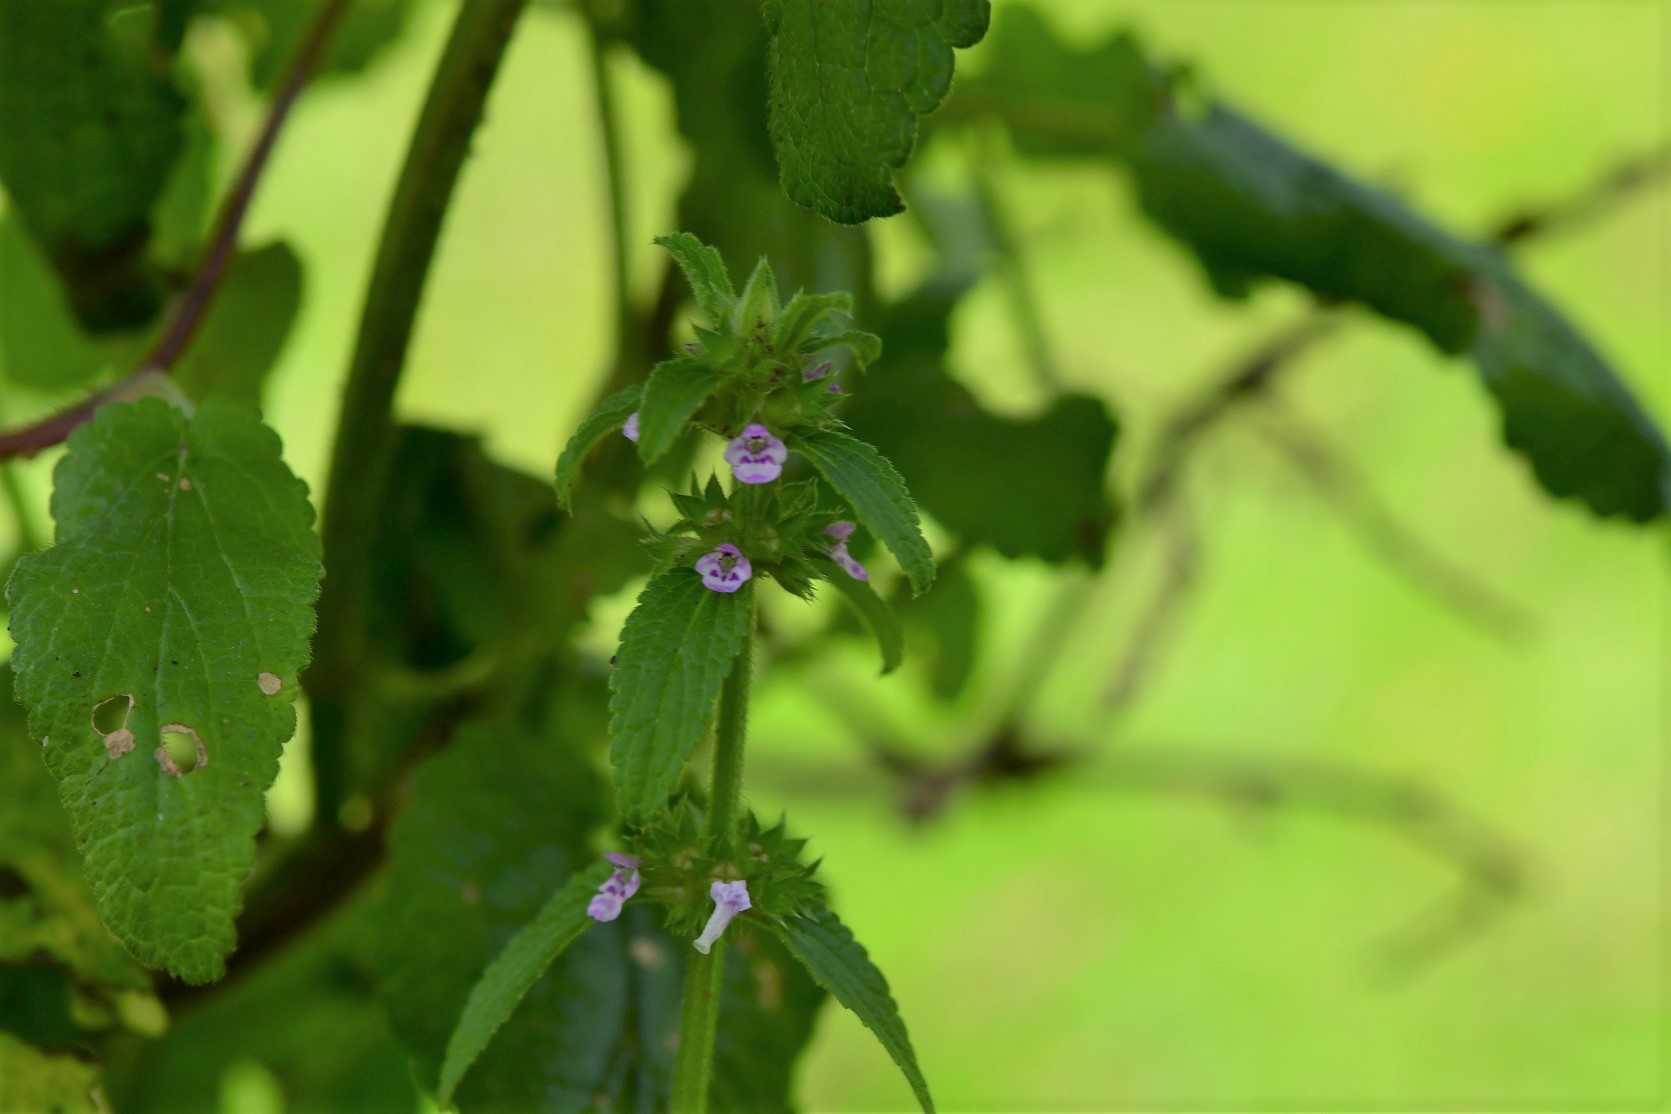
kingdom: Plantae
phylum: Tracheophyta
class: Magnoliopsida
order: Lamiales
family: Lamiaceae
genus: Stachys
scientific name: Stachys agraria
